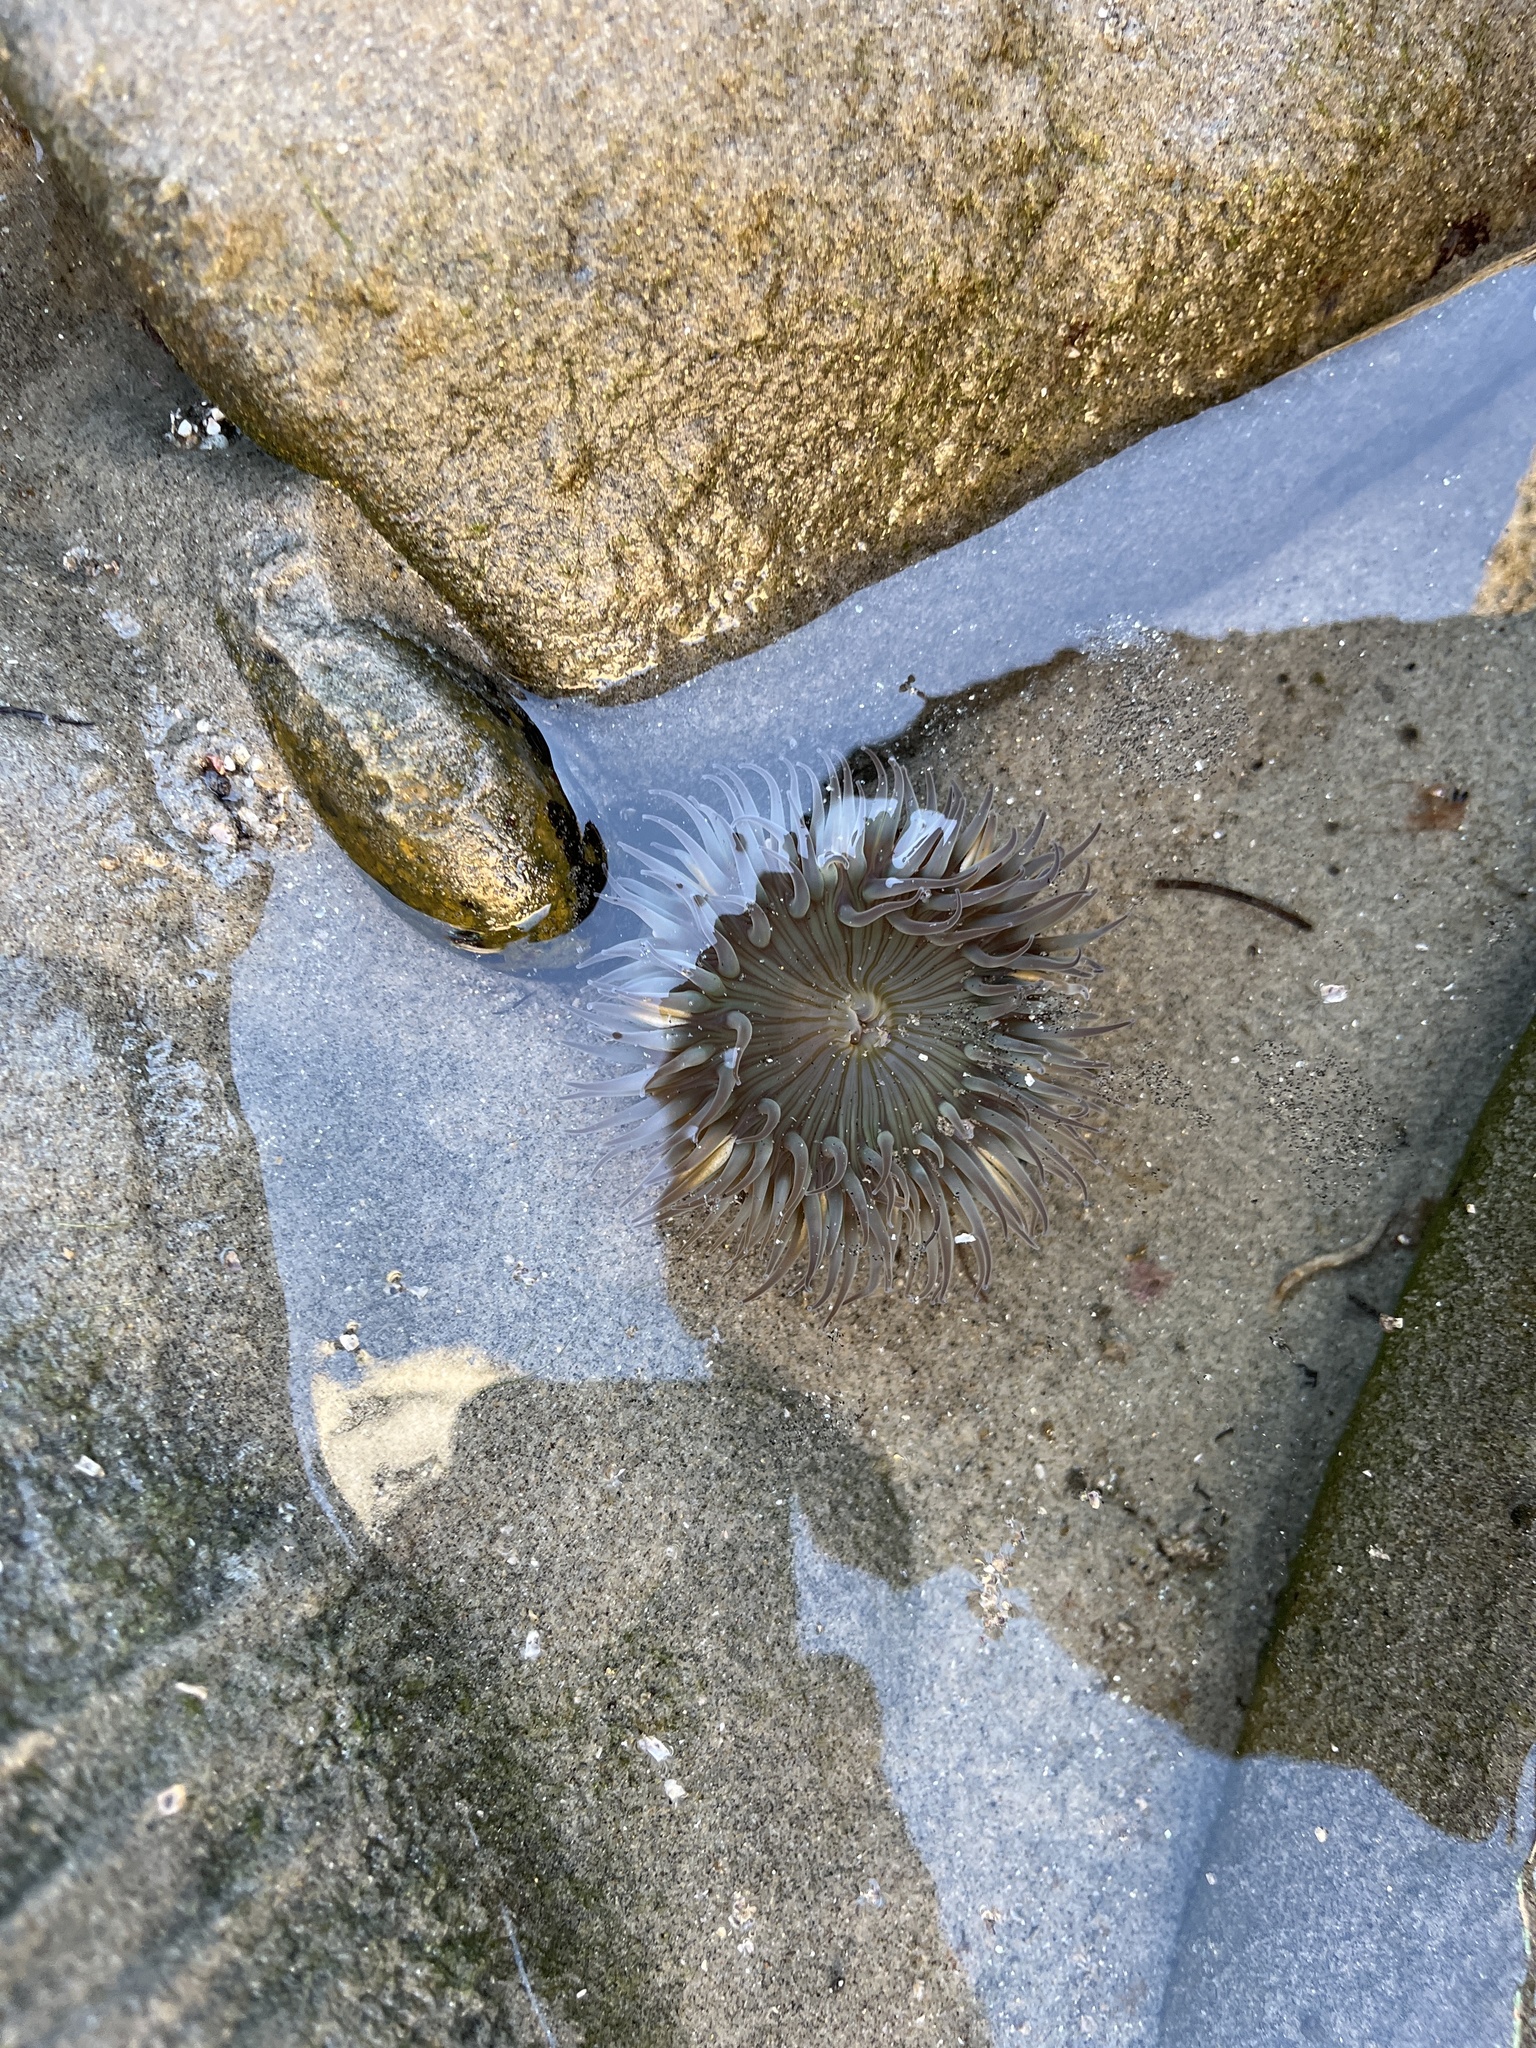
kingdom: Animalia
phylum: Cnidaria
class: Anthozoa
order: Actiniaria
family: Actiniidae
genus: Anthopleura
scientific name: Anthopleura sola
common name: Sun anemone
